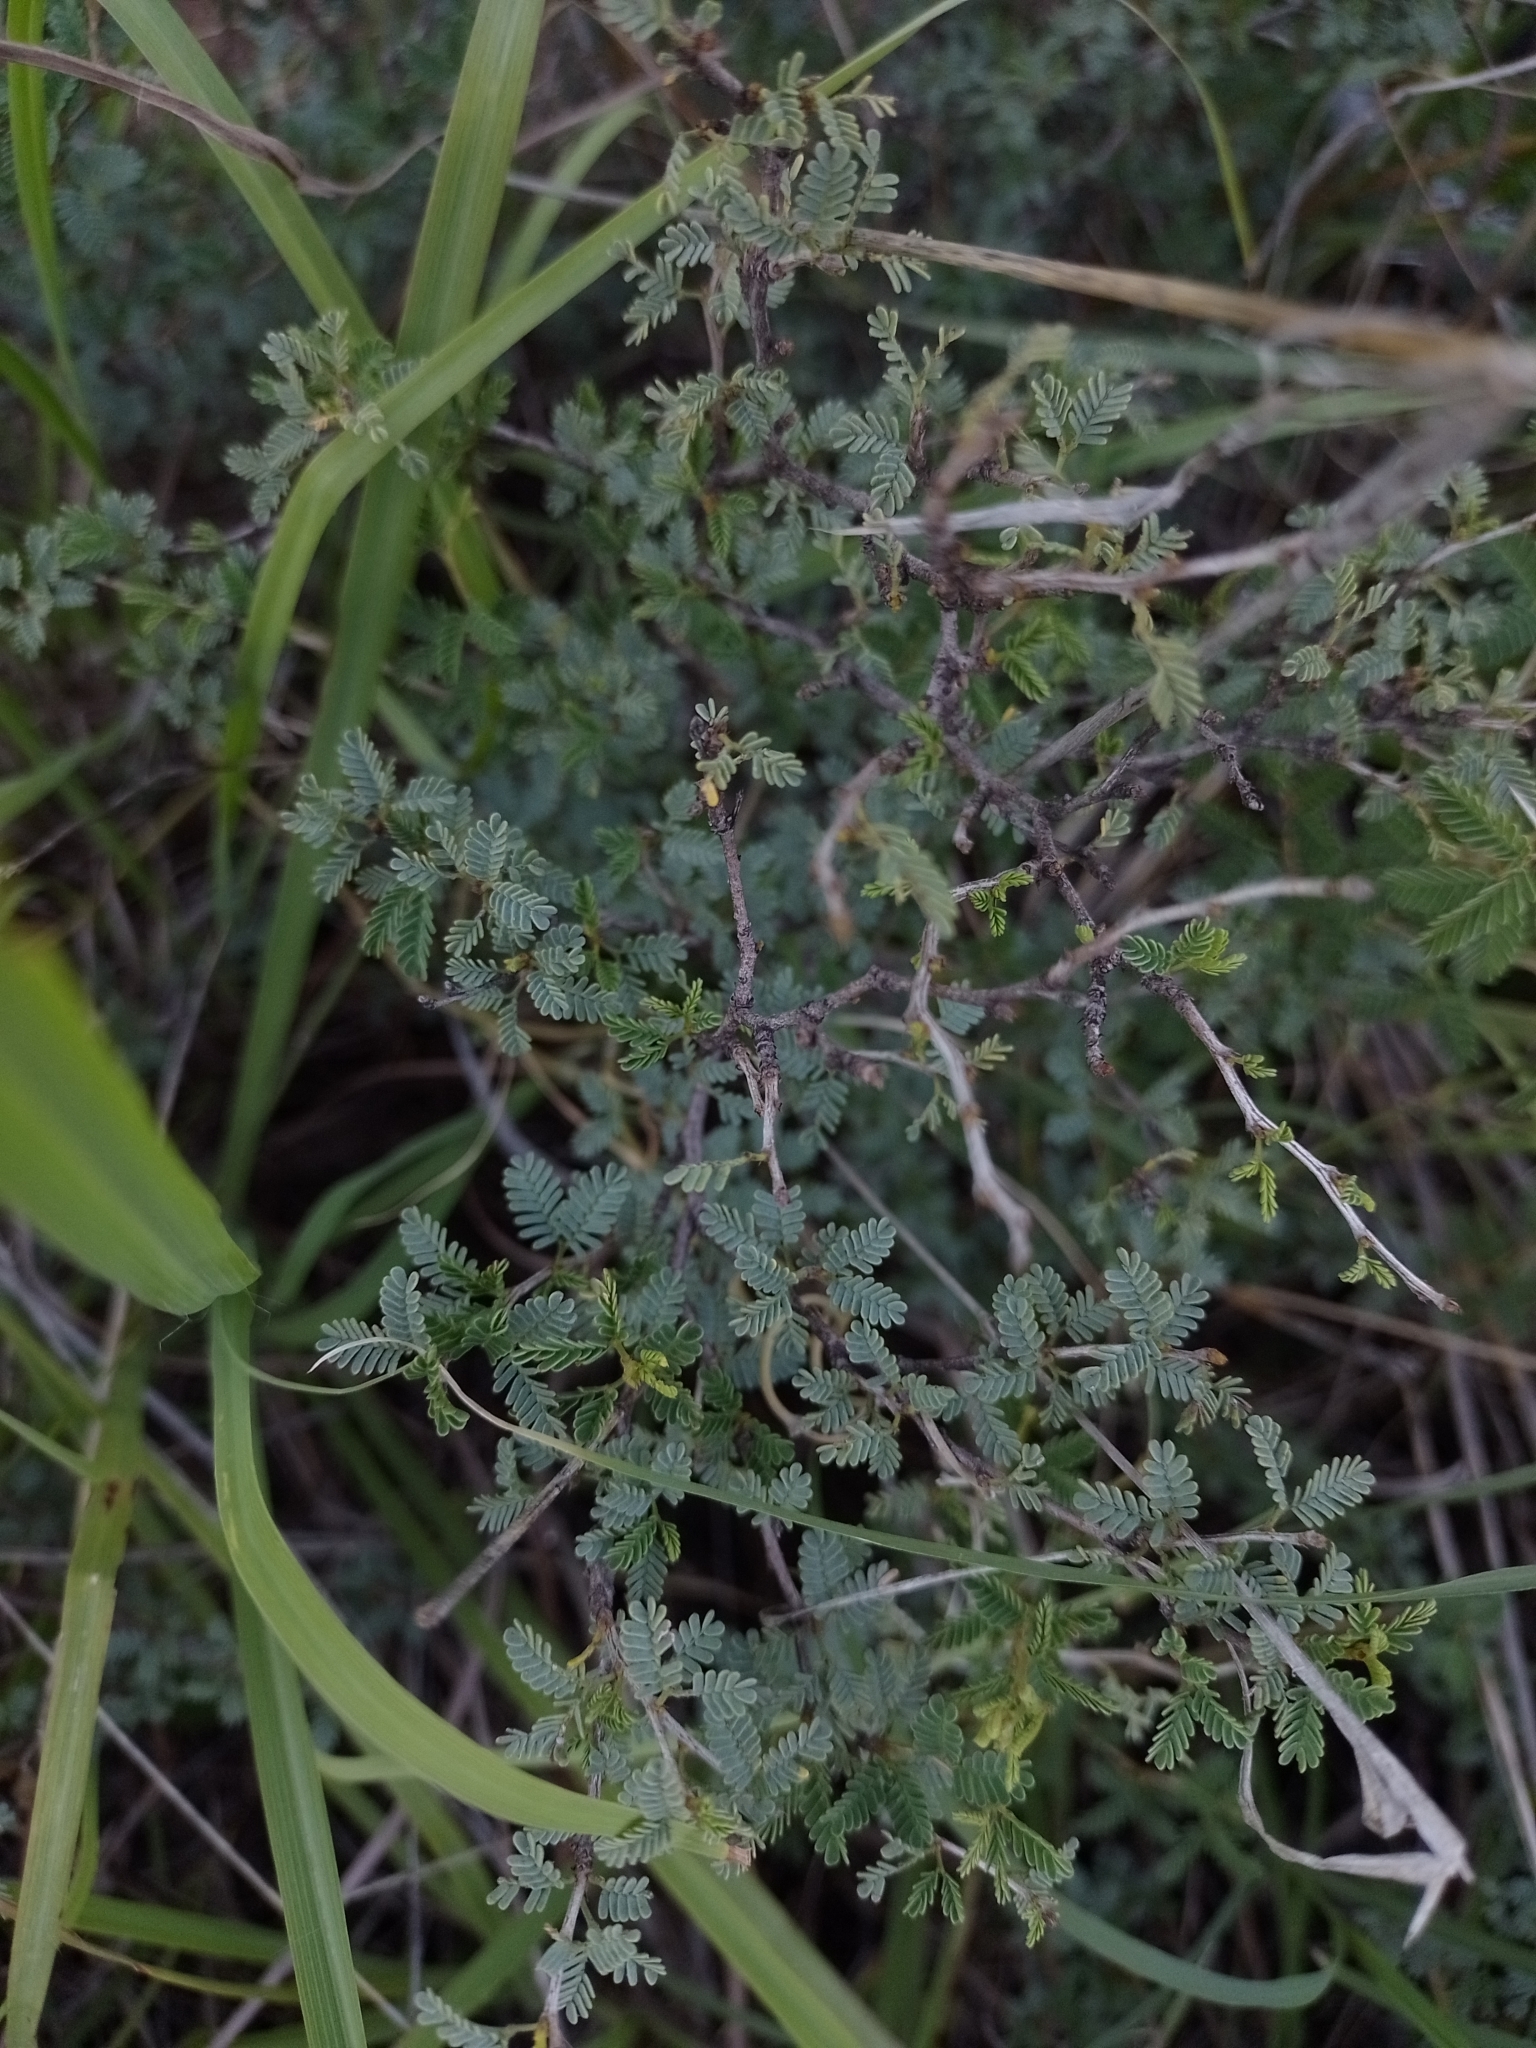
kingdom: Plantae
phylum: Tracheophyta
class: Magnoliopsida
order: Zygophyllales
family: Zygophyllaceae
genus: Porlieria
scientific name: Porlieria microphylla
